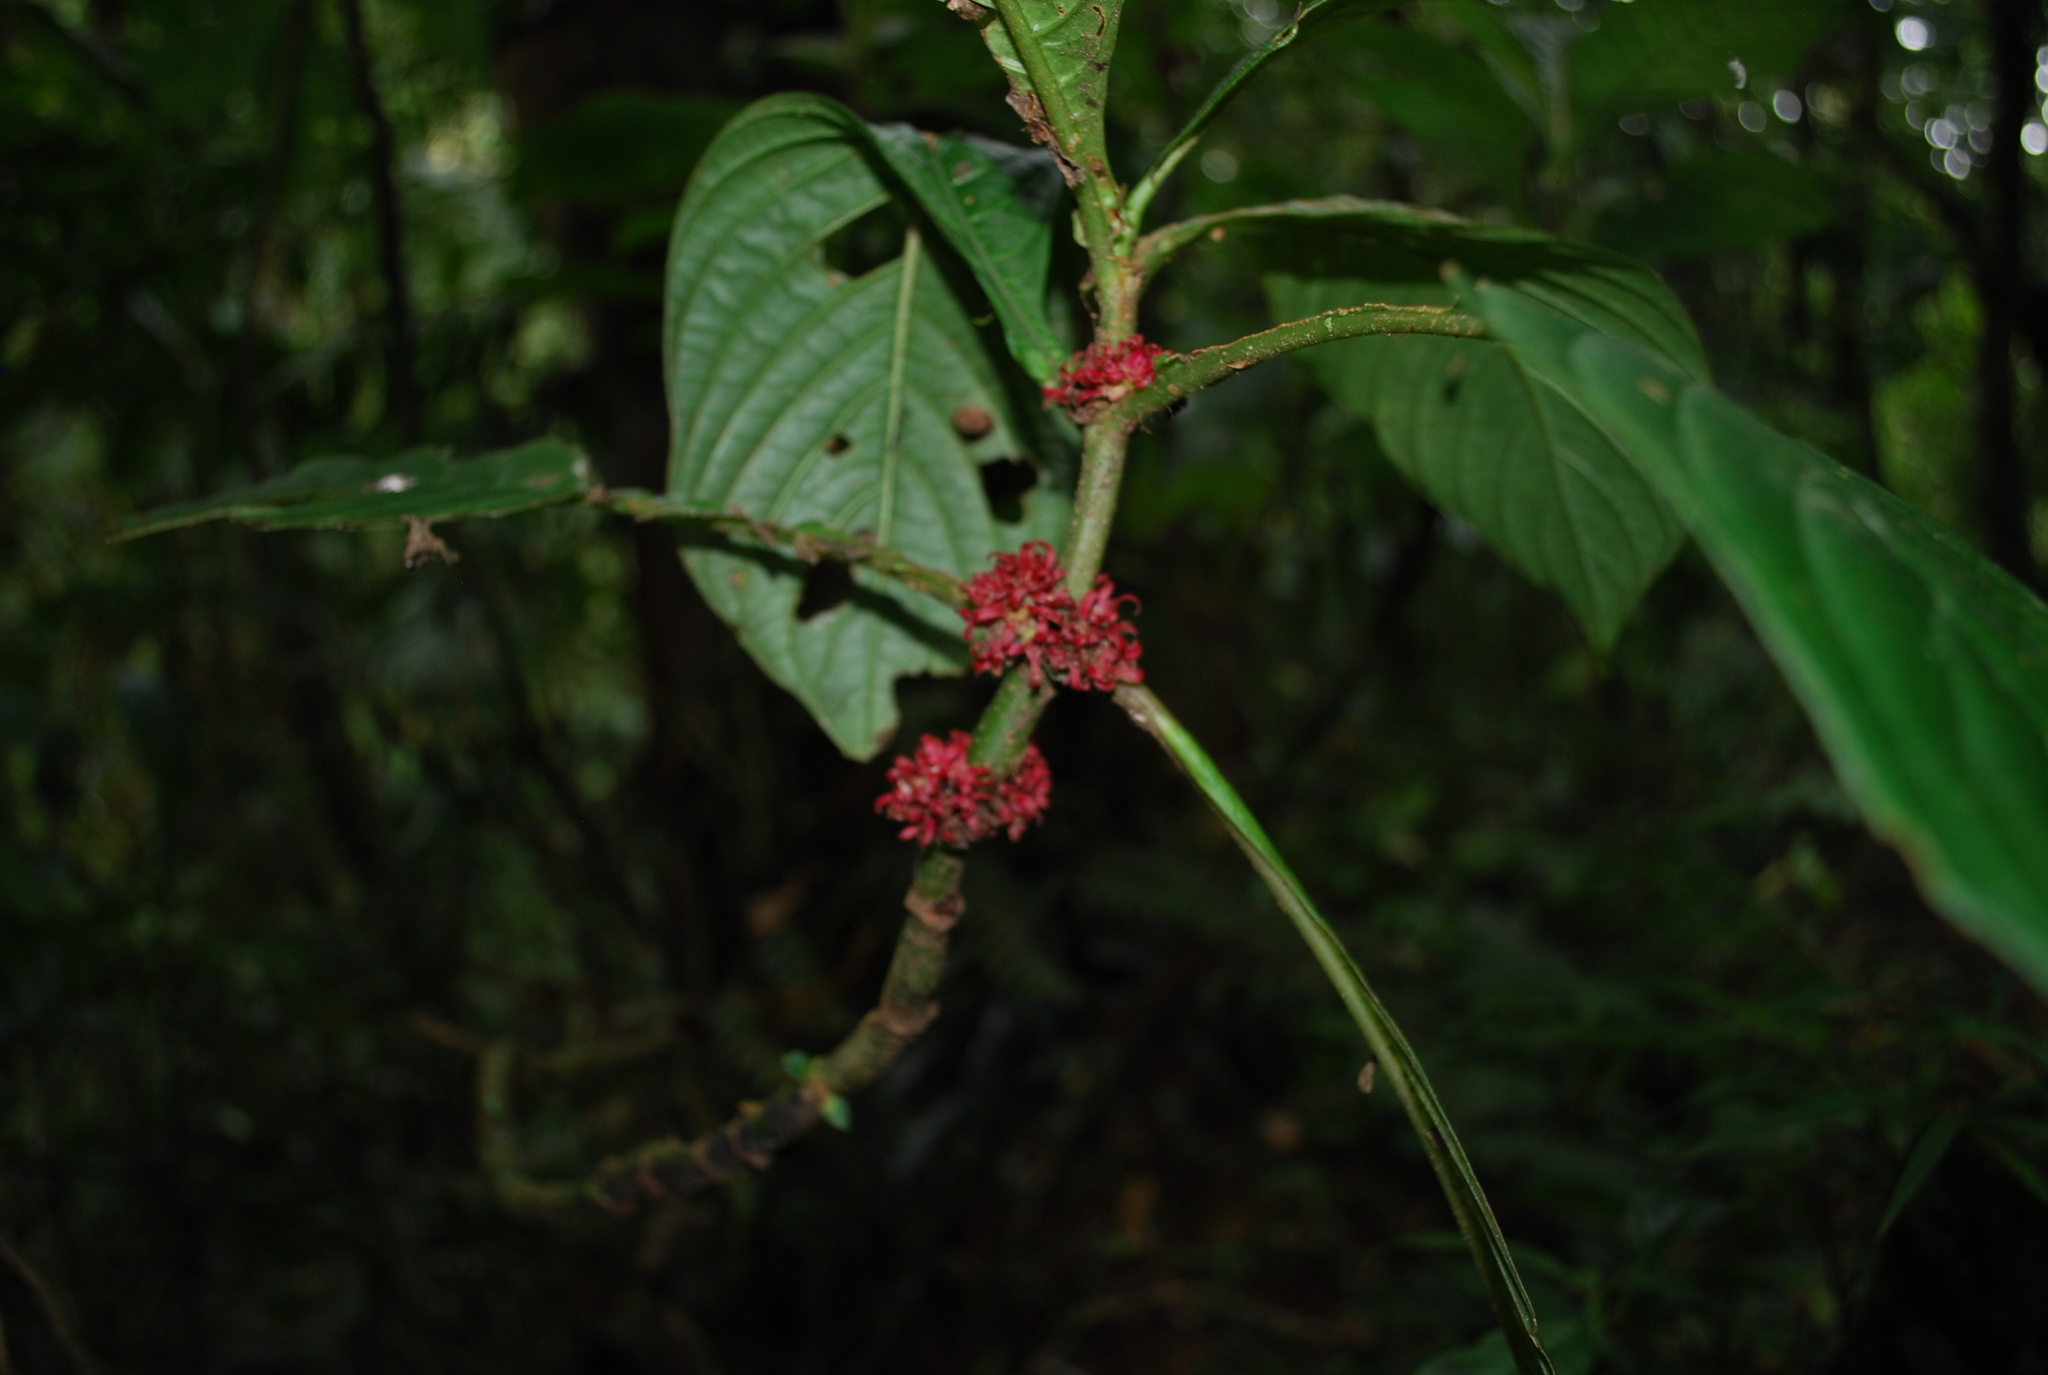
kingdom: Plantae
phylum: Tracheophyta
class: Magnoliopsida
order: Gentianales
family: Rubiaceae
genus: Hoffmannia
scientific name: Hoffmannia congesta
